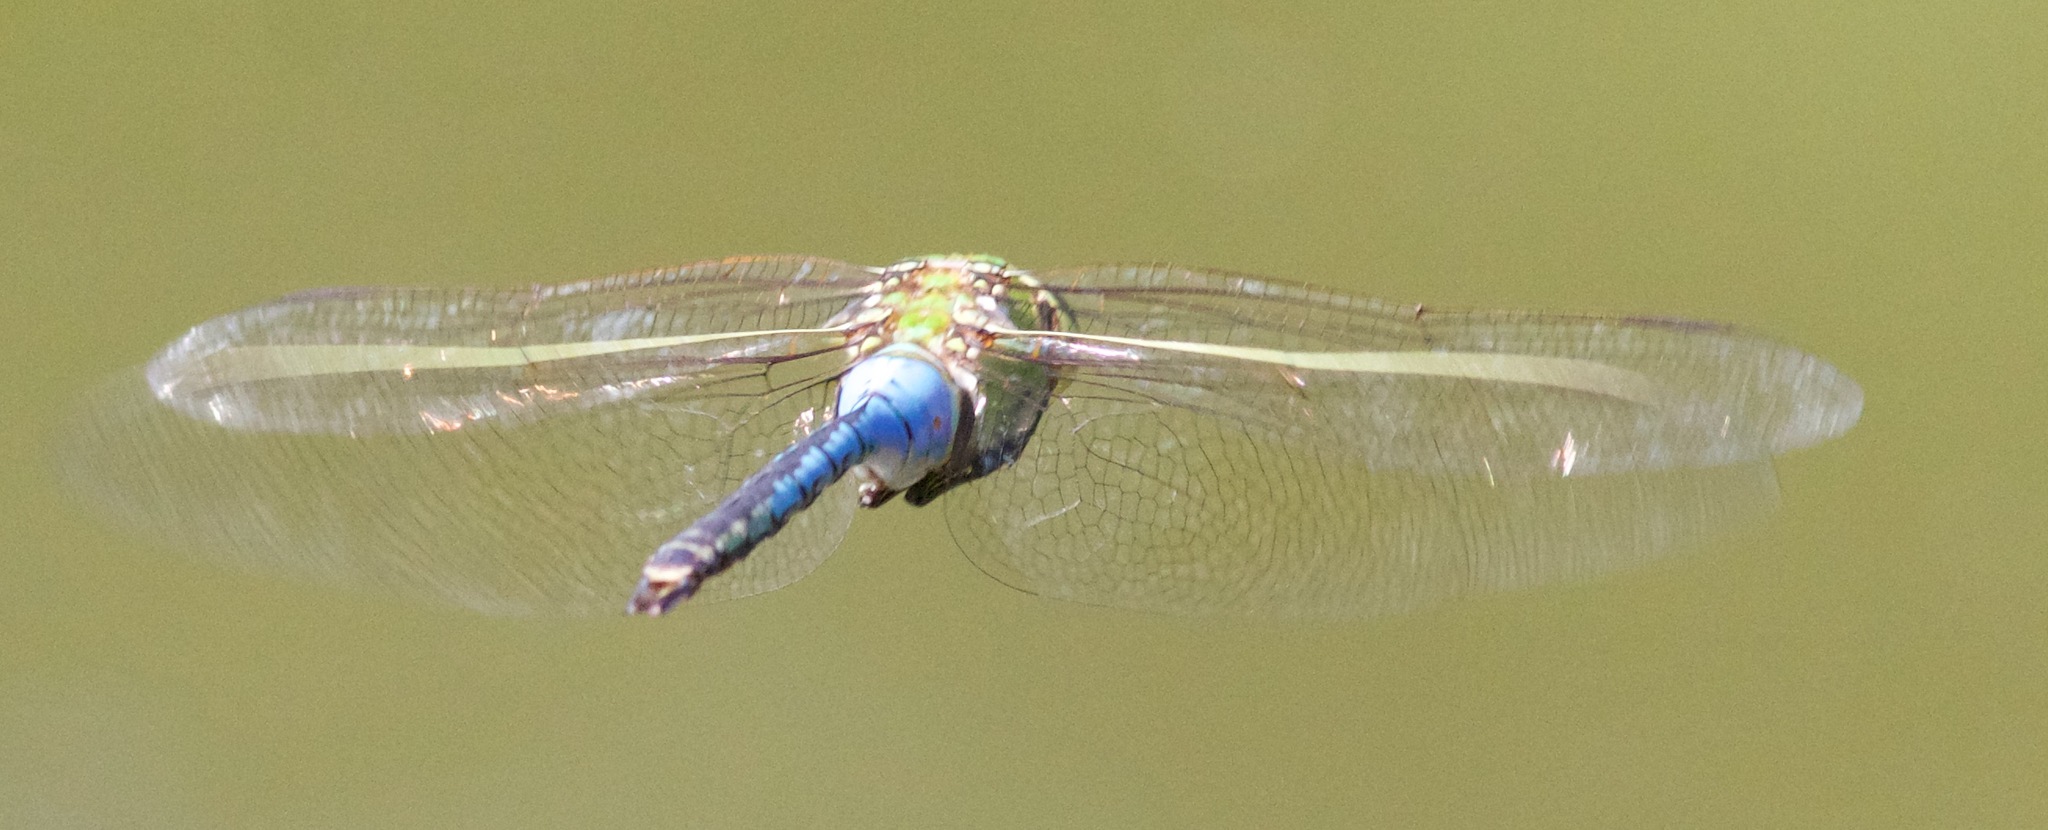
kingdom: Animalia
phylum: Arthropoda
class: Insecta
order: Odonata
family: Aeshnidae
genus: Anax
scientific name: Anax junius
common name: Common green darner
